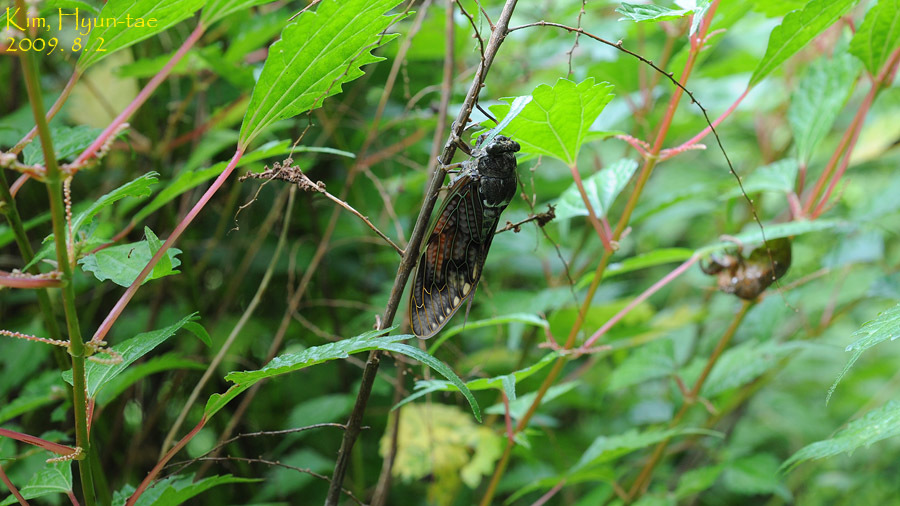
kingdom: Animalia
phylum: Arthropoda
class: Insecta
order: Hemiptera
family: Cicadidae
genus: Graptopsaltria
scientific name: Graptopsaltria nigrofuscata
